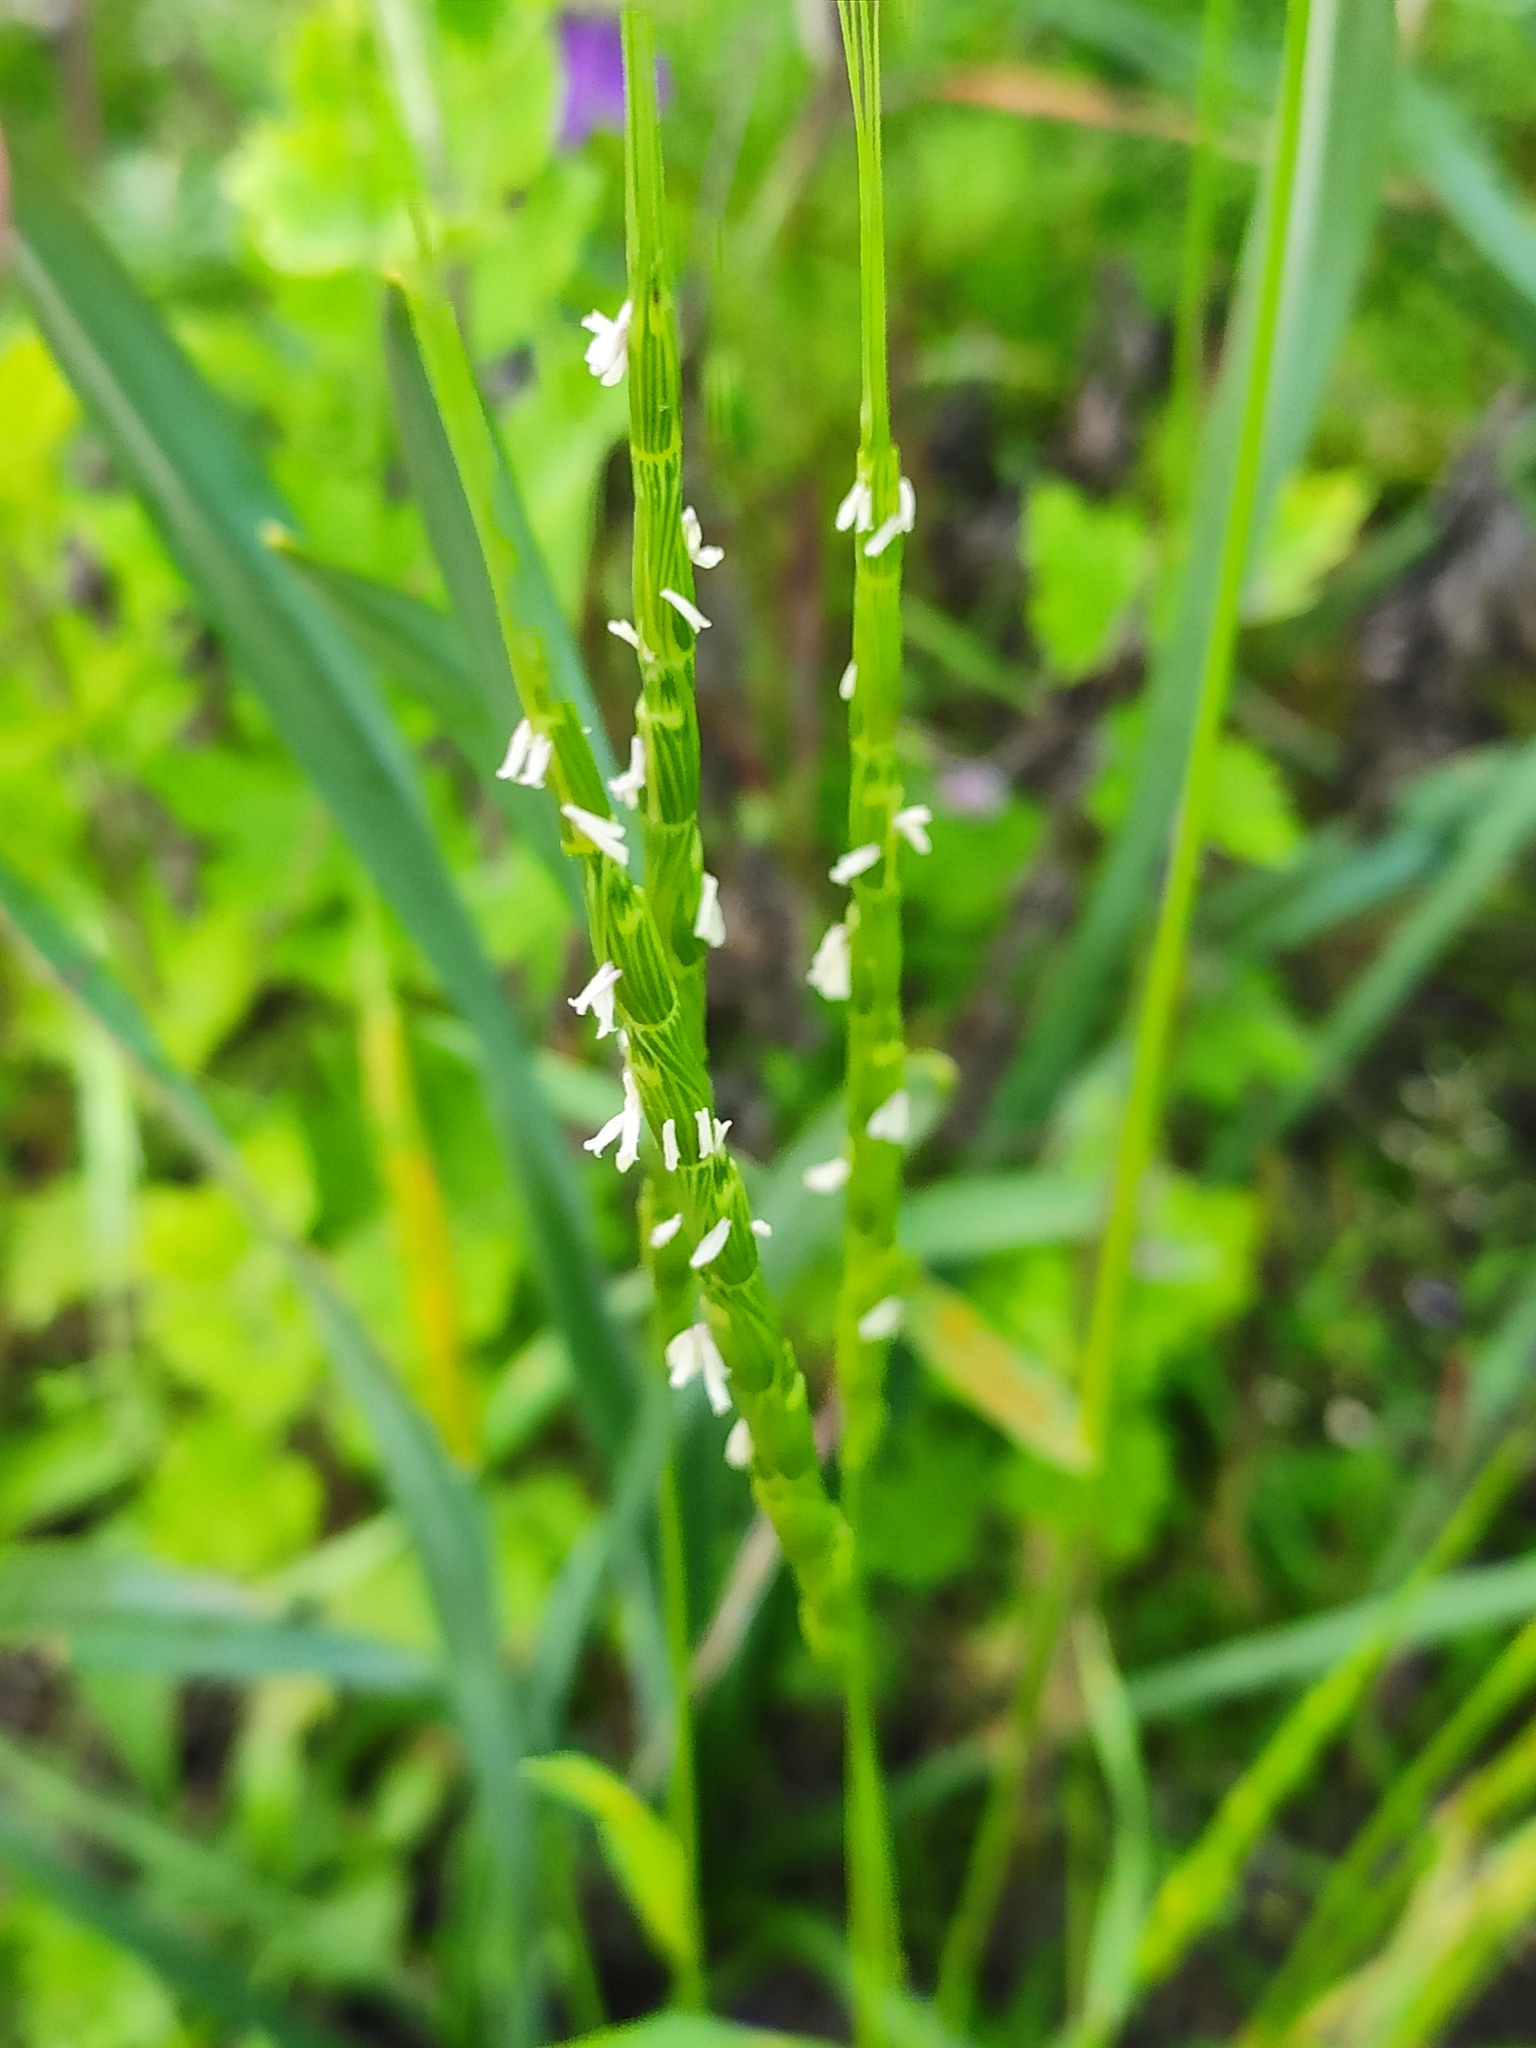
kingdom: Plantae
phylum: Tracheophyta
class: Liliopsida
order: Poales
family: Poaceae
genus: Aegilops
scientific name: Aegilops cylindrica
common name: Jointed goatgrass
